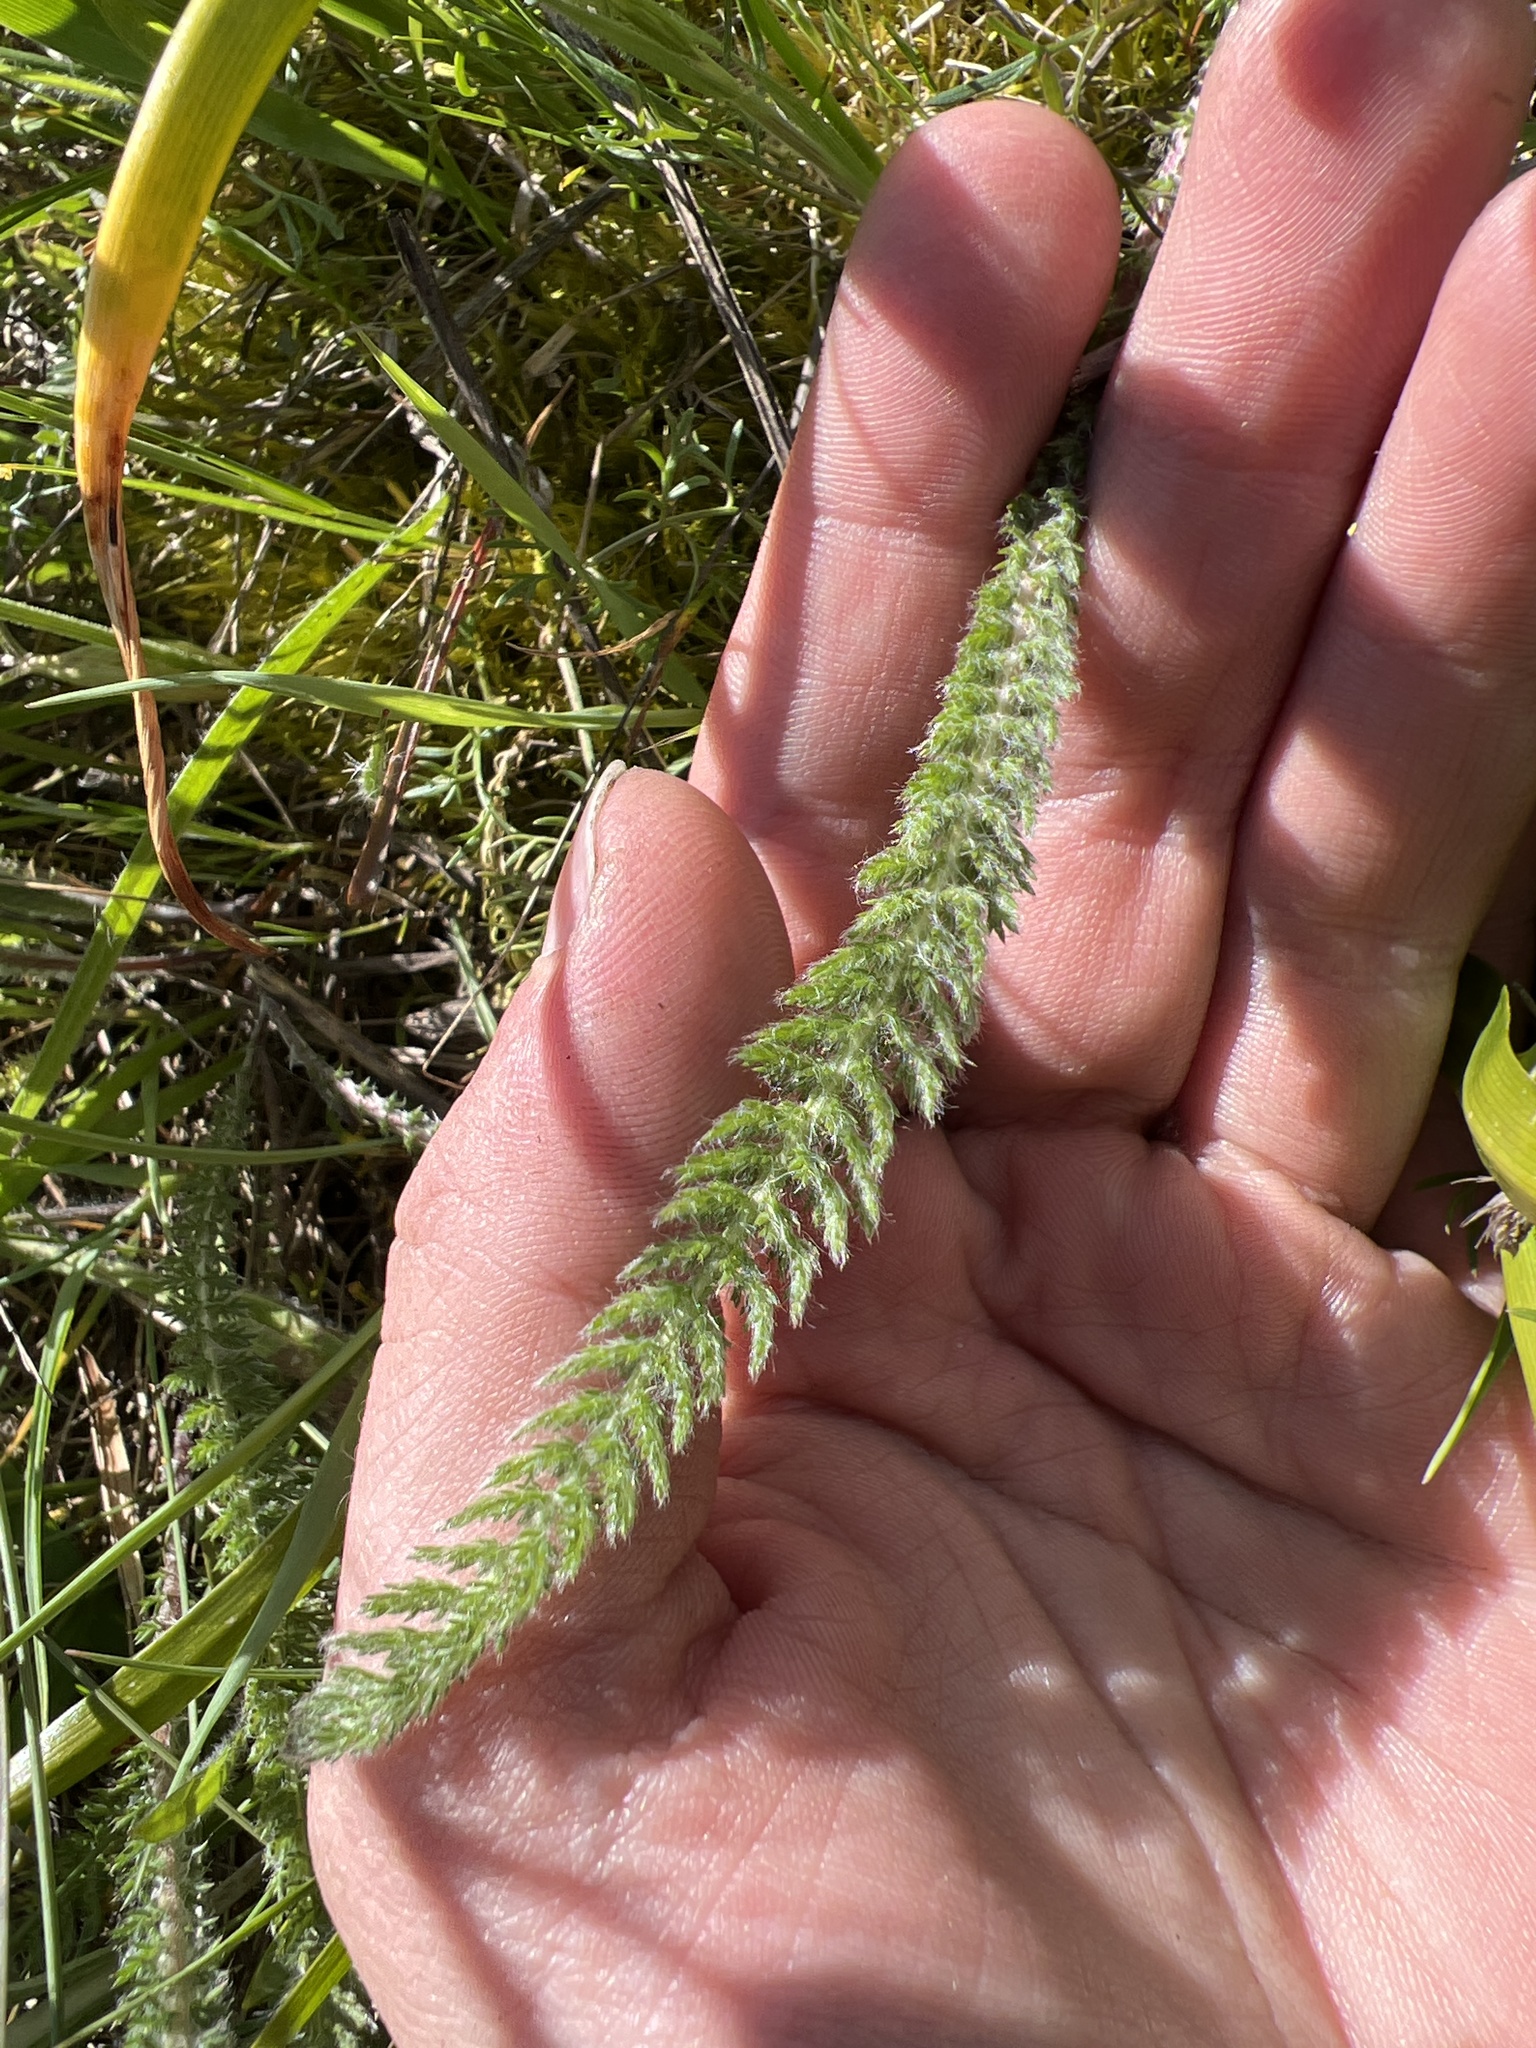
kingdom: Plantae
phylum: Tracheophyta
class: Magnoliopsida
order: Asterales
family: Asteraceae
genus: Achillea
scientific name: Achillea millefolium
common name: Yarrow
